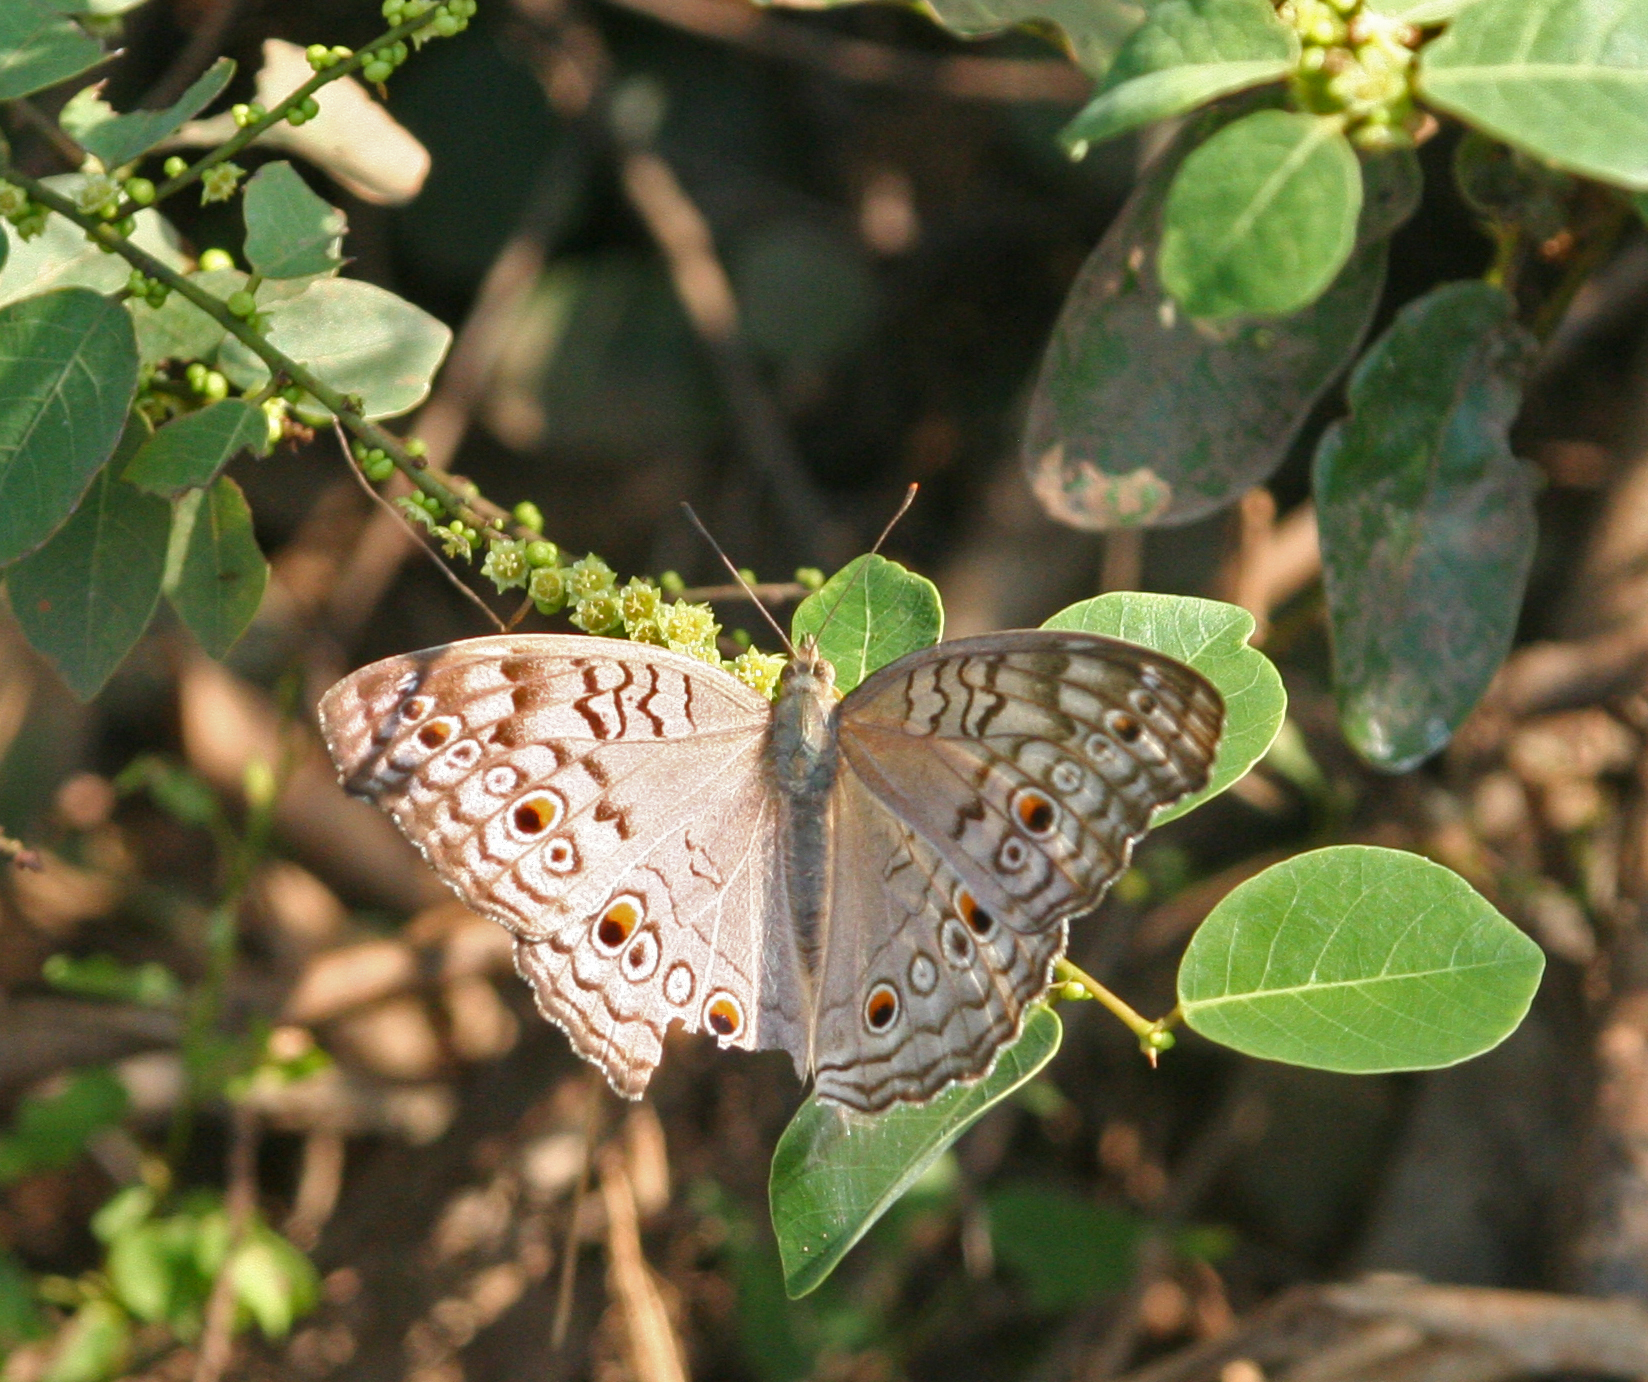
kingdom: Animalia
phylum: Arthropoda
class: Insecta
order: Lepidoptera
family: Nymphalidae
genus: Junonia
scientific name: Junonia atlites
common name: Grey pansy
